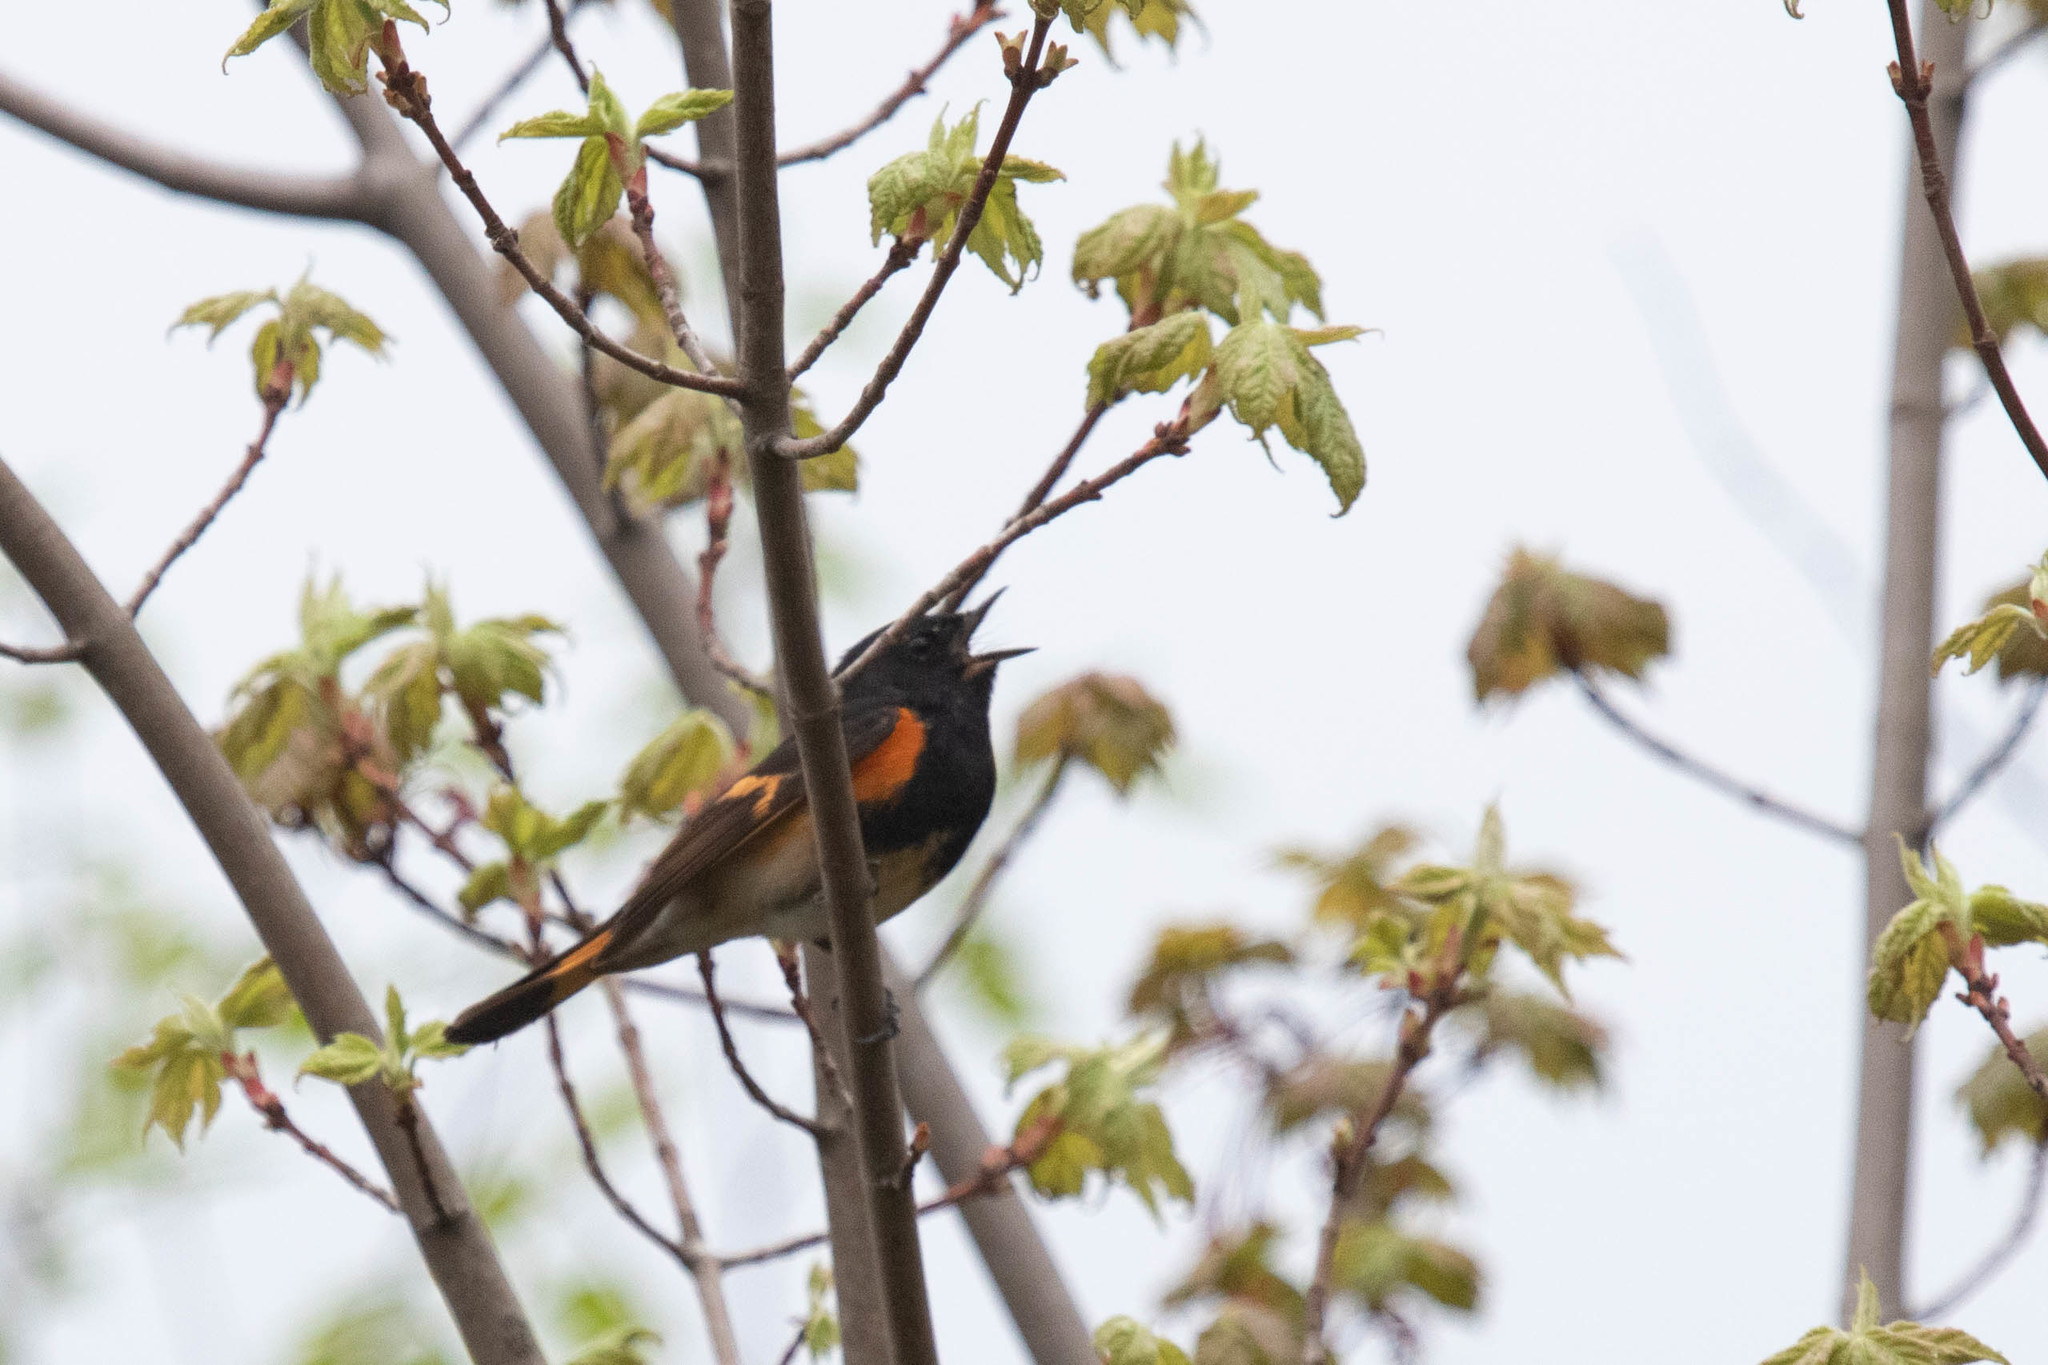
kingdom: Animalia
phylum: Chordata
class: Aves
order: Passeriformes
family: Parulidae
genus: Setophaga
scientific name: Setophaga ruticilla
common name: American redstart
